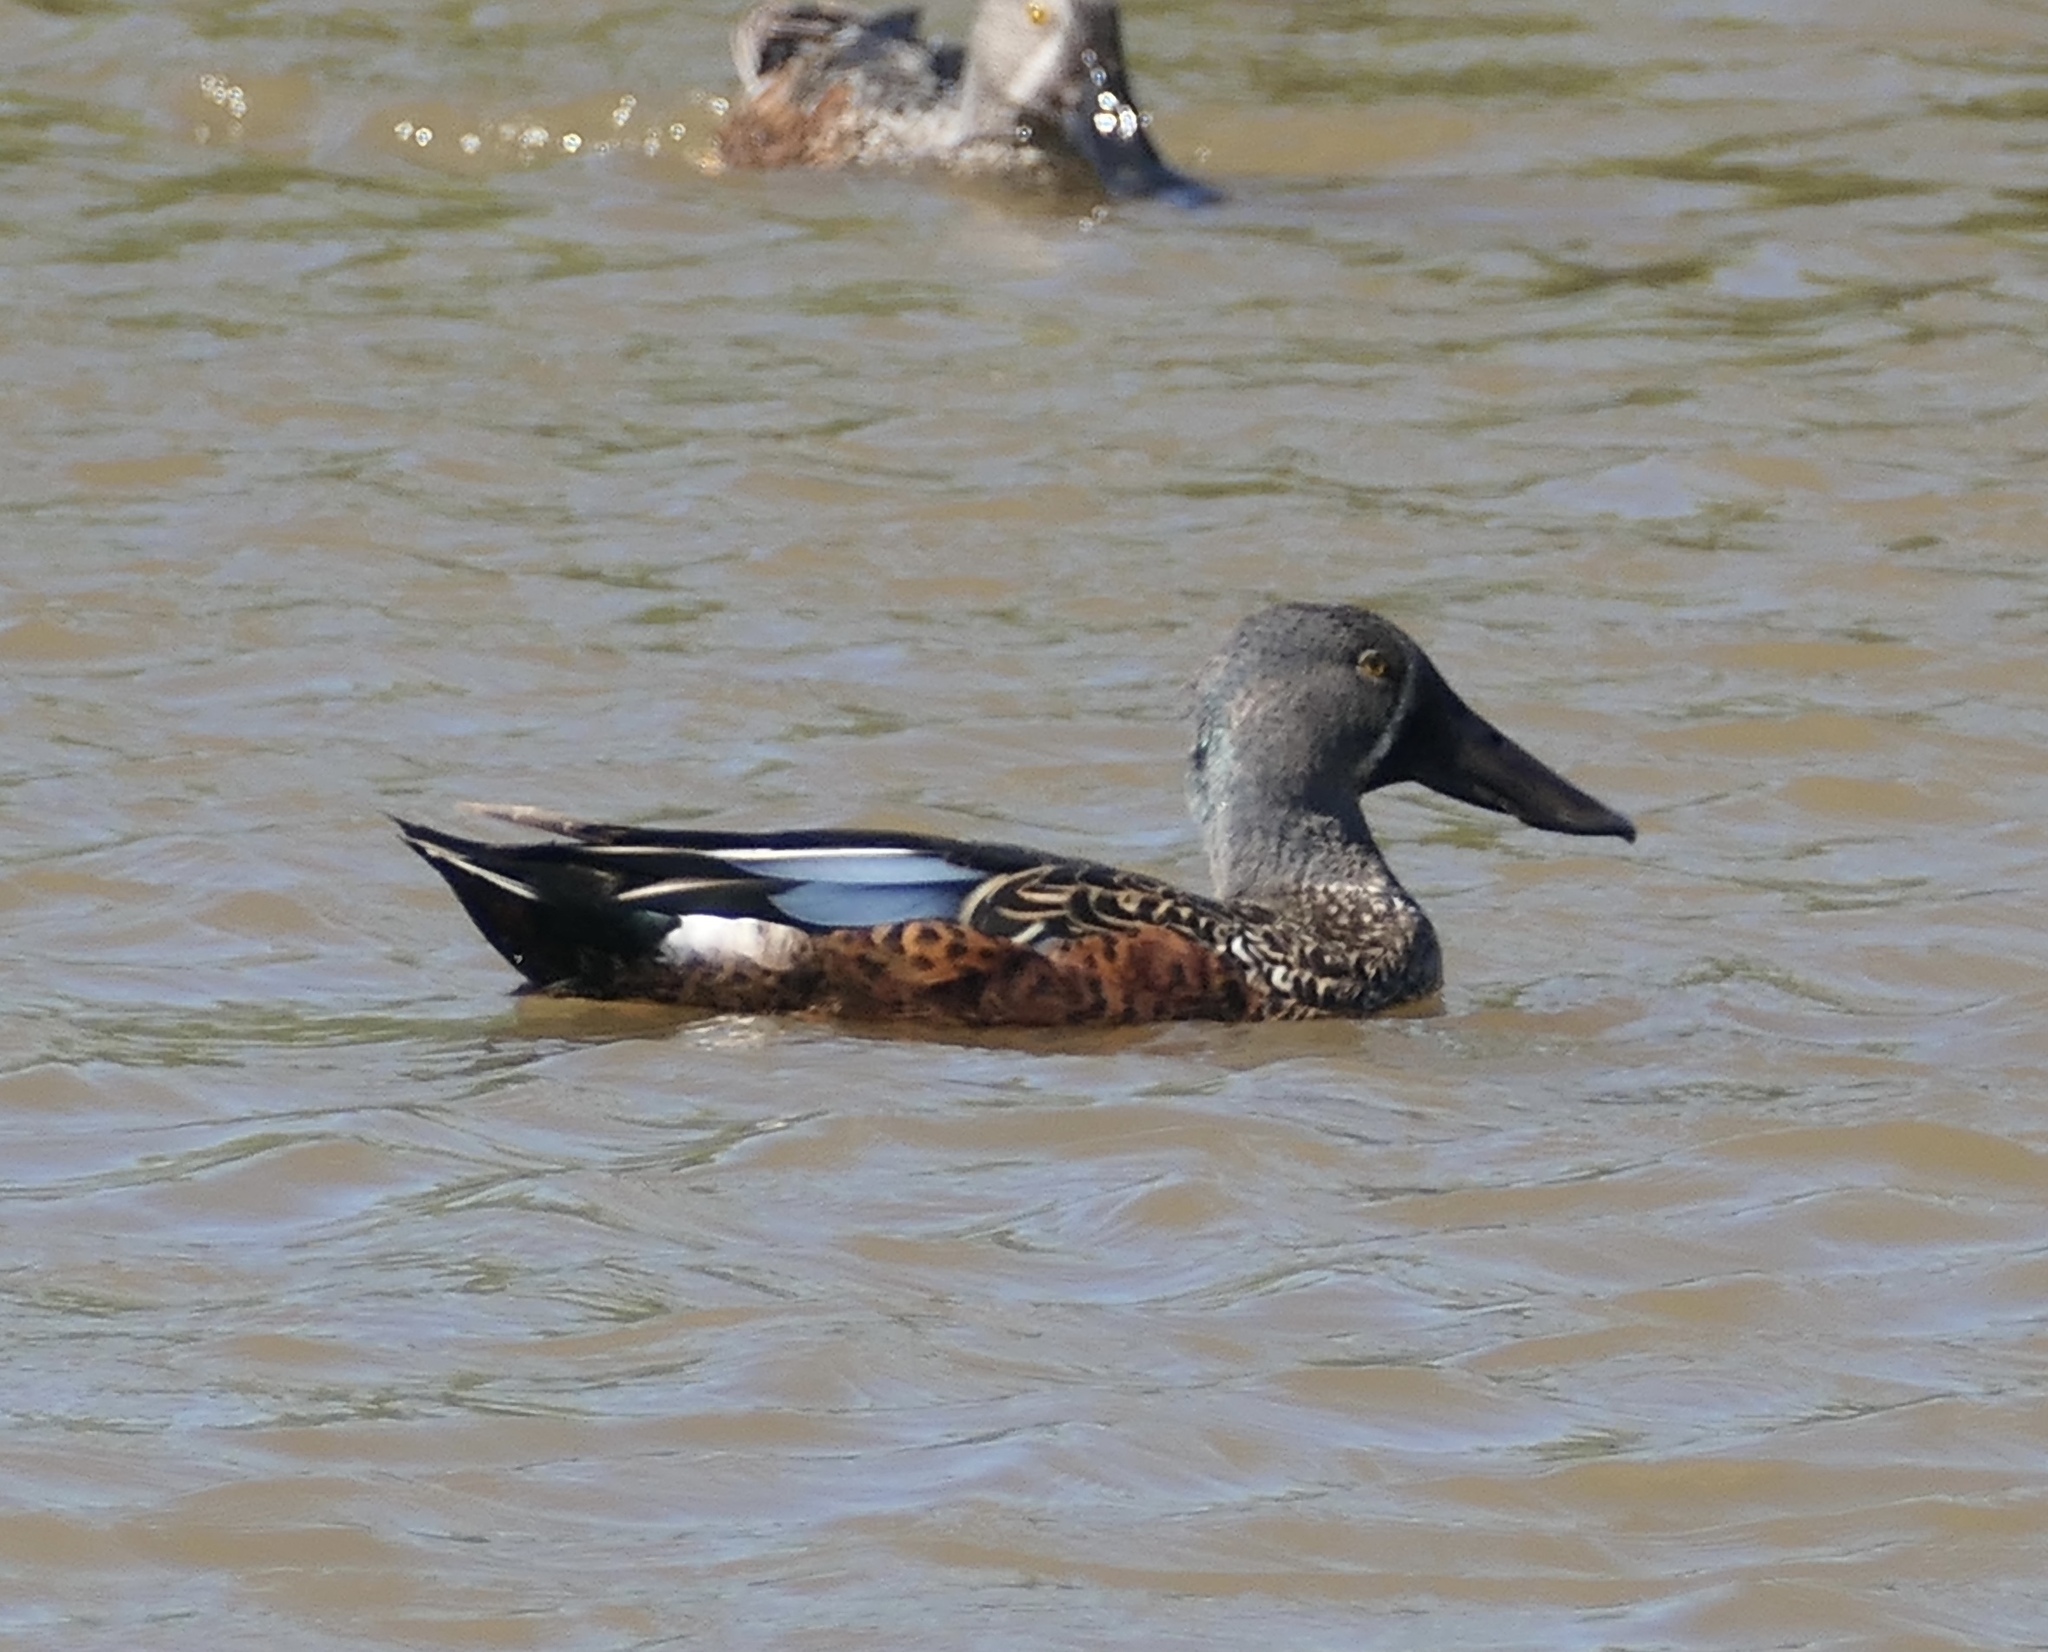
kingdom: Animalia
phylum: Chordata
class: Aves
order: Anseriformes
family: Anatidae
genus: Spatula
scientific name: Spatula rhynchotis
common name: Australian shoveler
